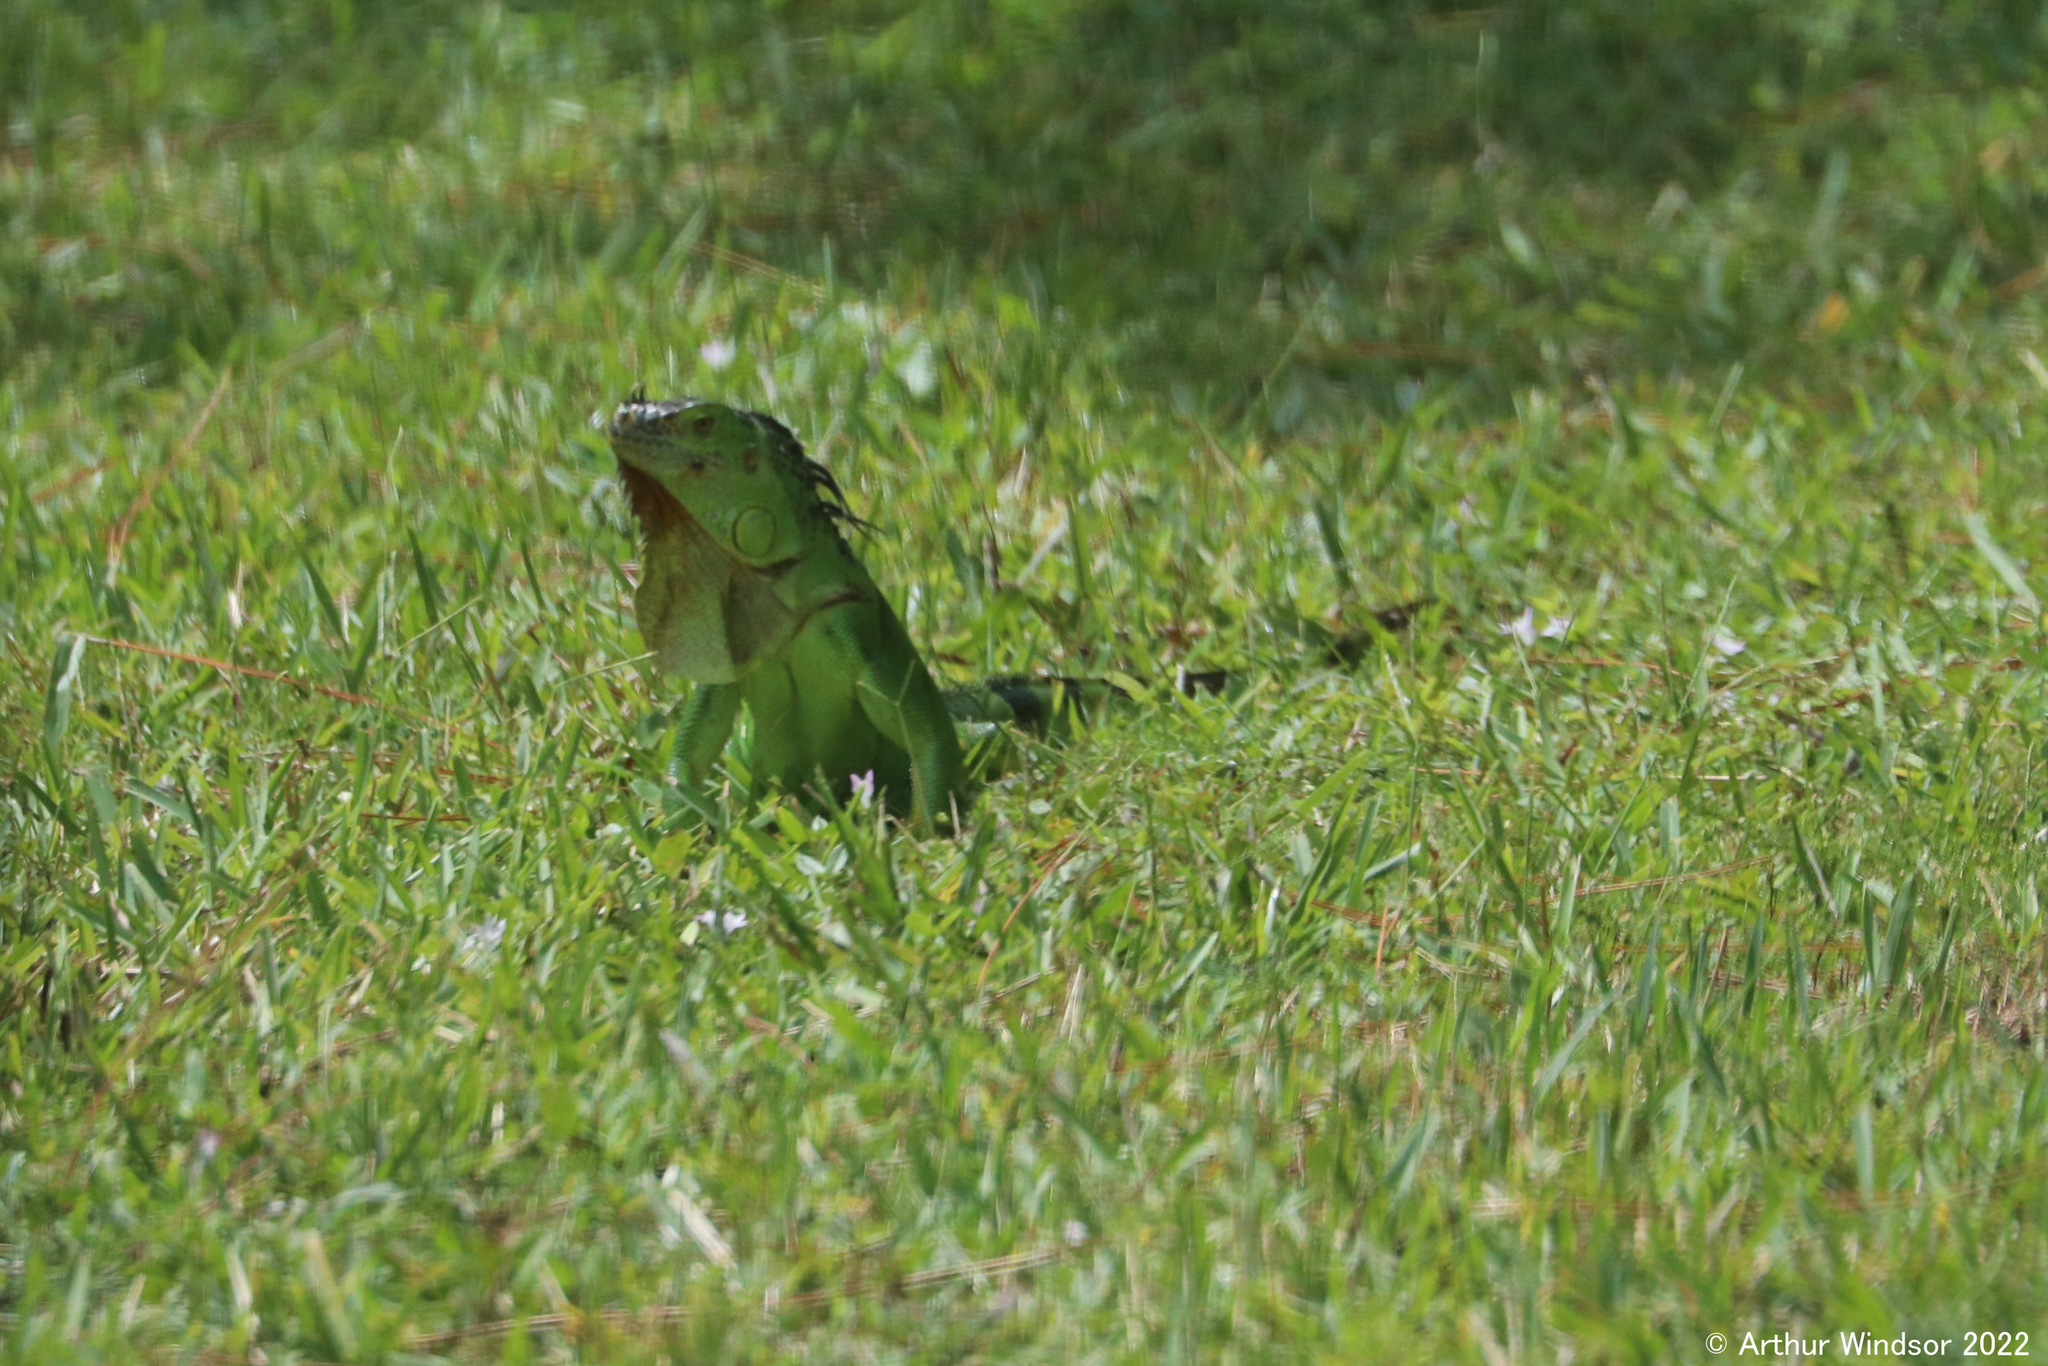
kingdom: Animalia
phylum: Chordata
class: Squamata
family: Iguanidae
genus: Iguana
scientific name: Iguana iguana
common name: Green iguana
